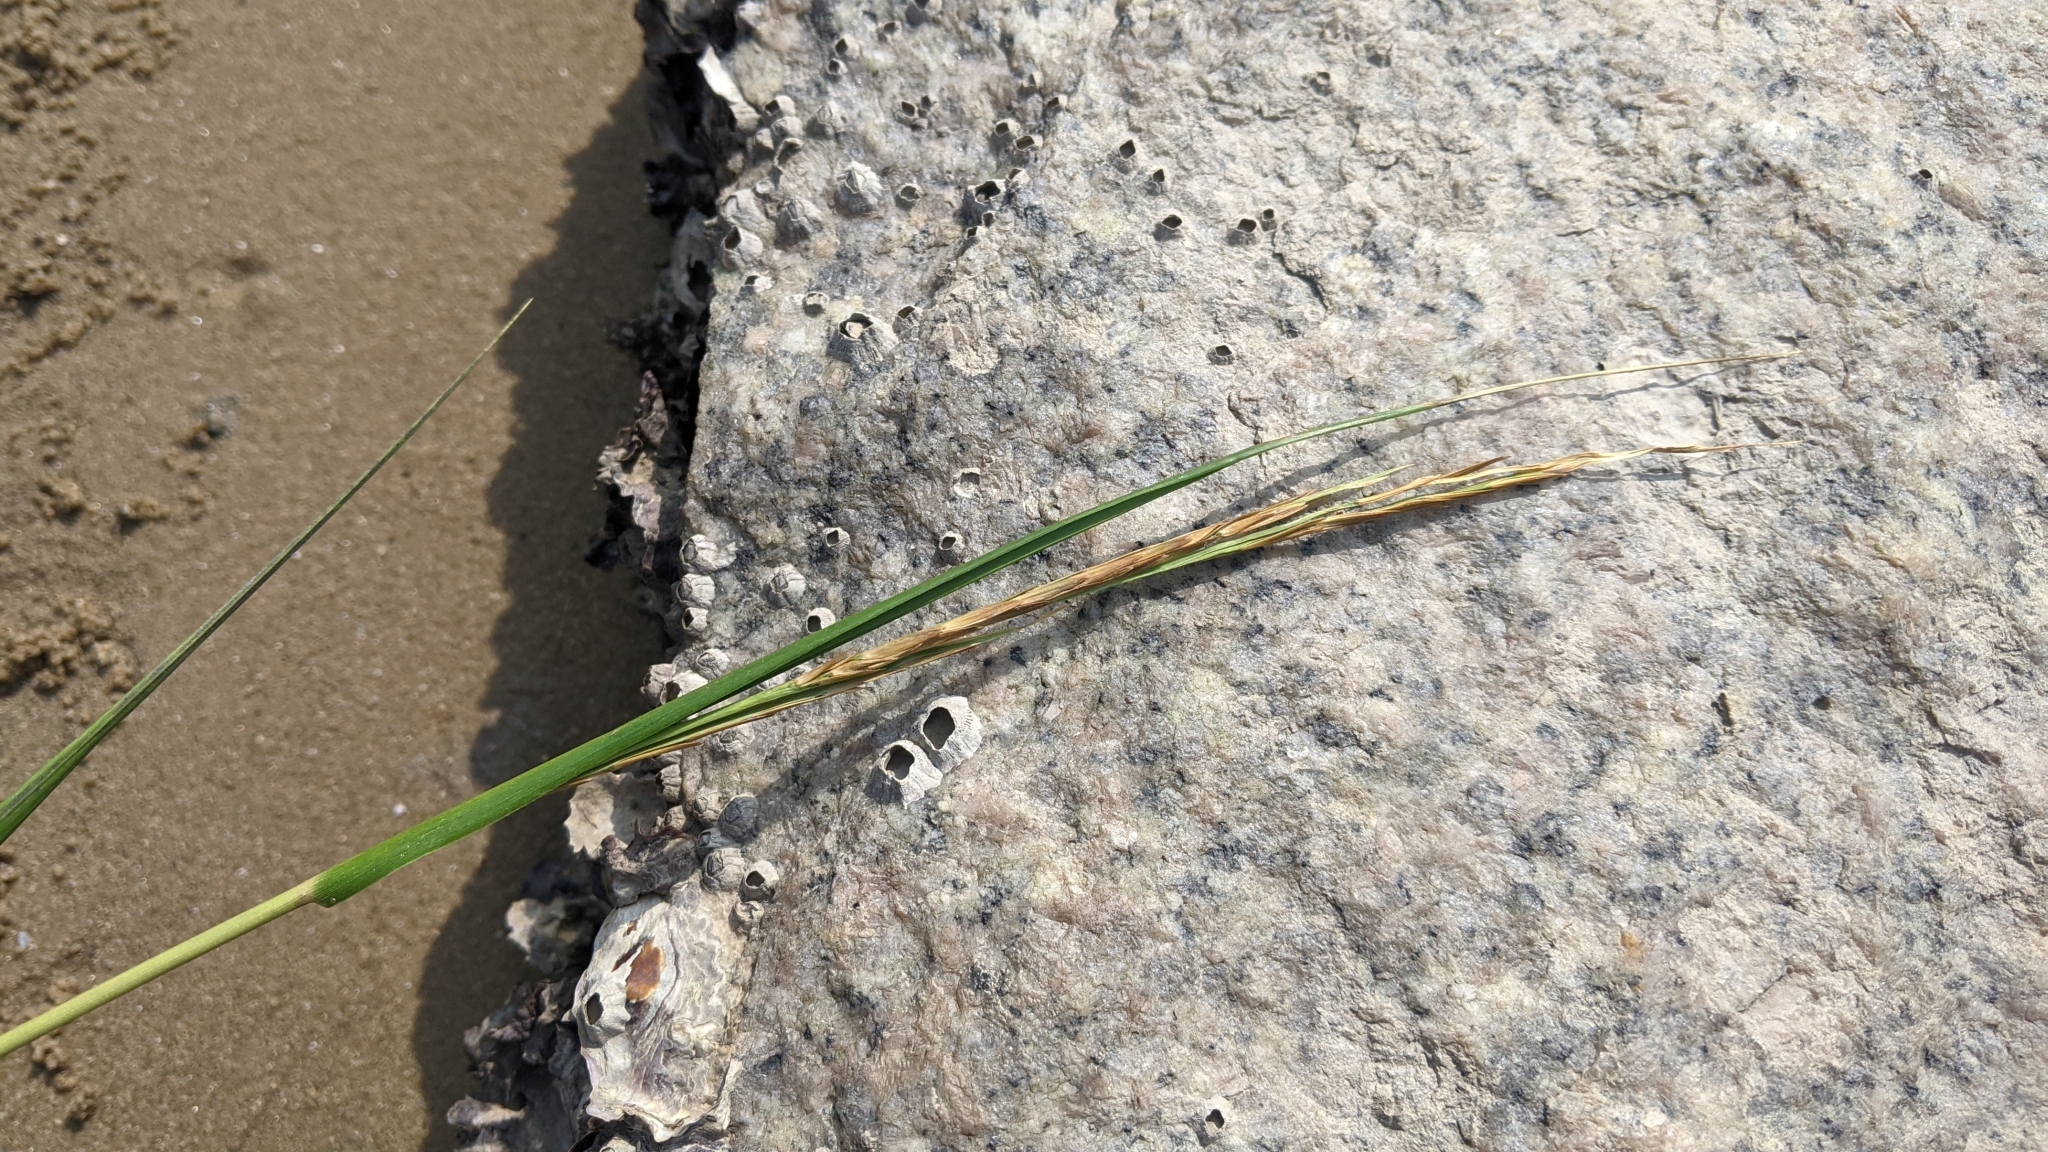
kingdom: Plantae
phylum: Tracheophyta
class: Liliopsida
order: Poales
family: Poaceae
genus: Sporobolus
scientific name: Sporobolus alterniflorus
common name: Atlantic cordgrass
